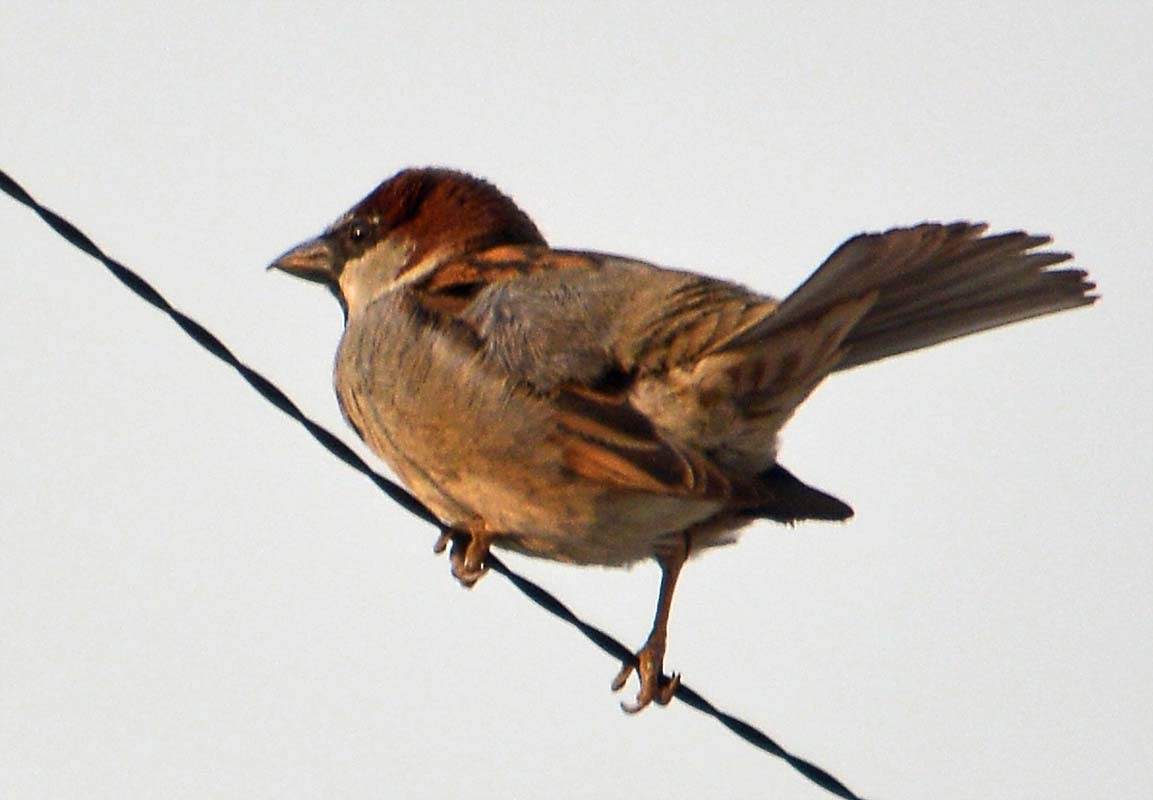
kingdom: Animalia
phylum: Chordata
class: Aves
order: Passeriformes
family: Passeridae
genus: Passer
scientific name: Passer domesticus
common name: House sparrow
